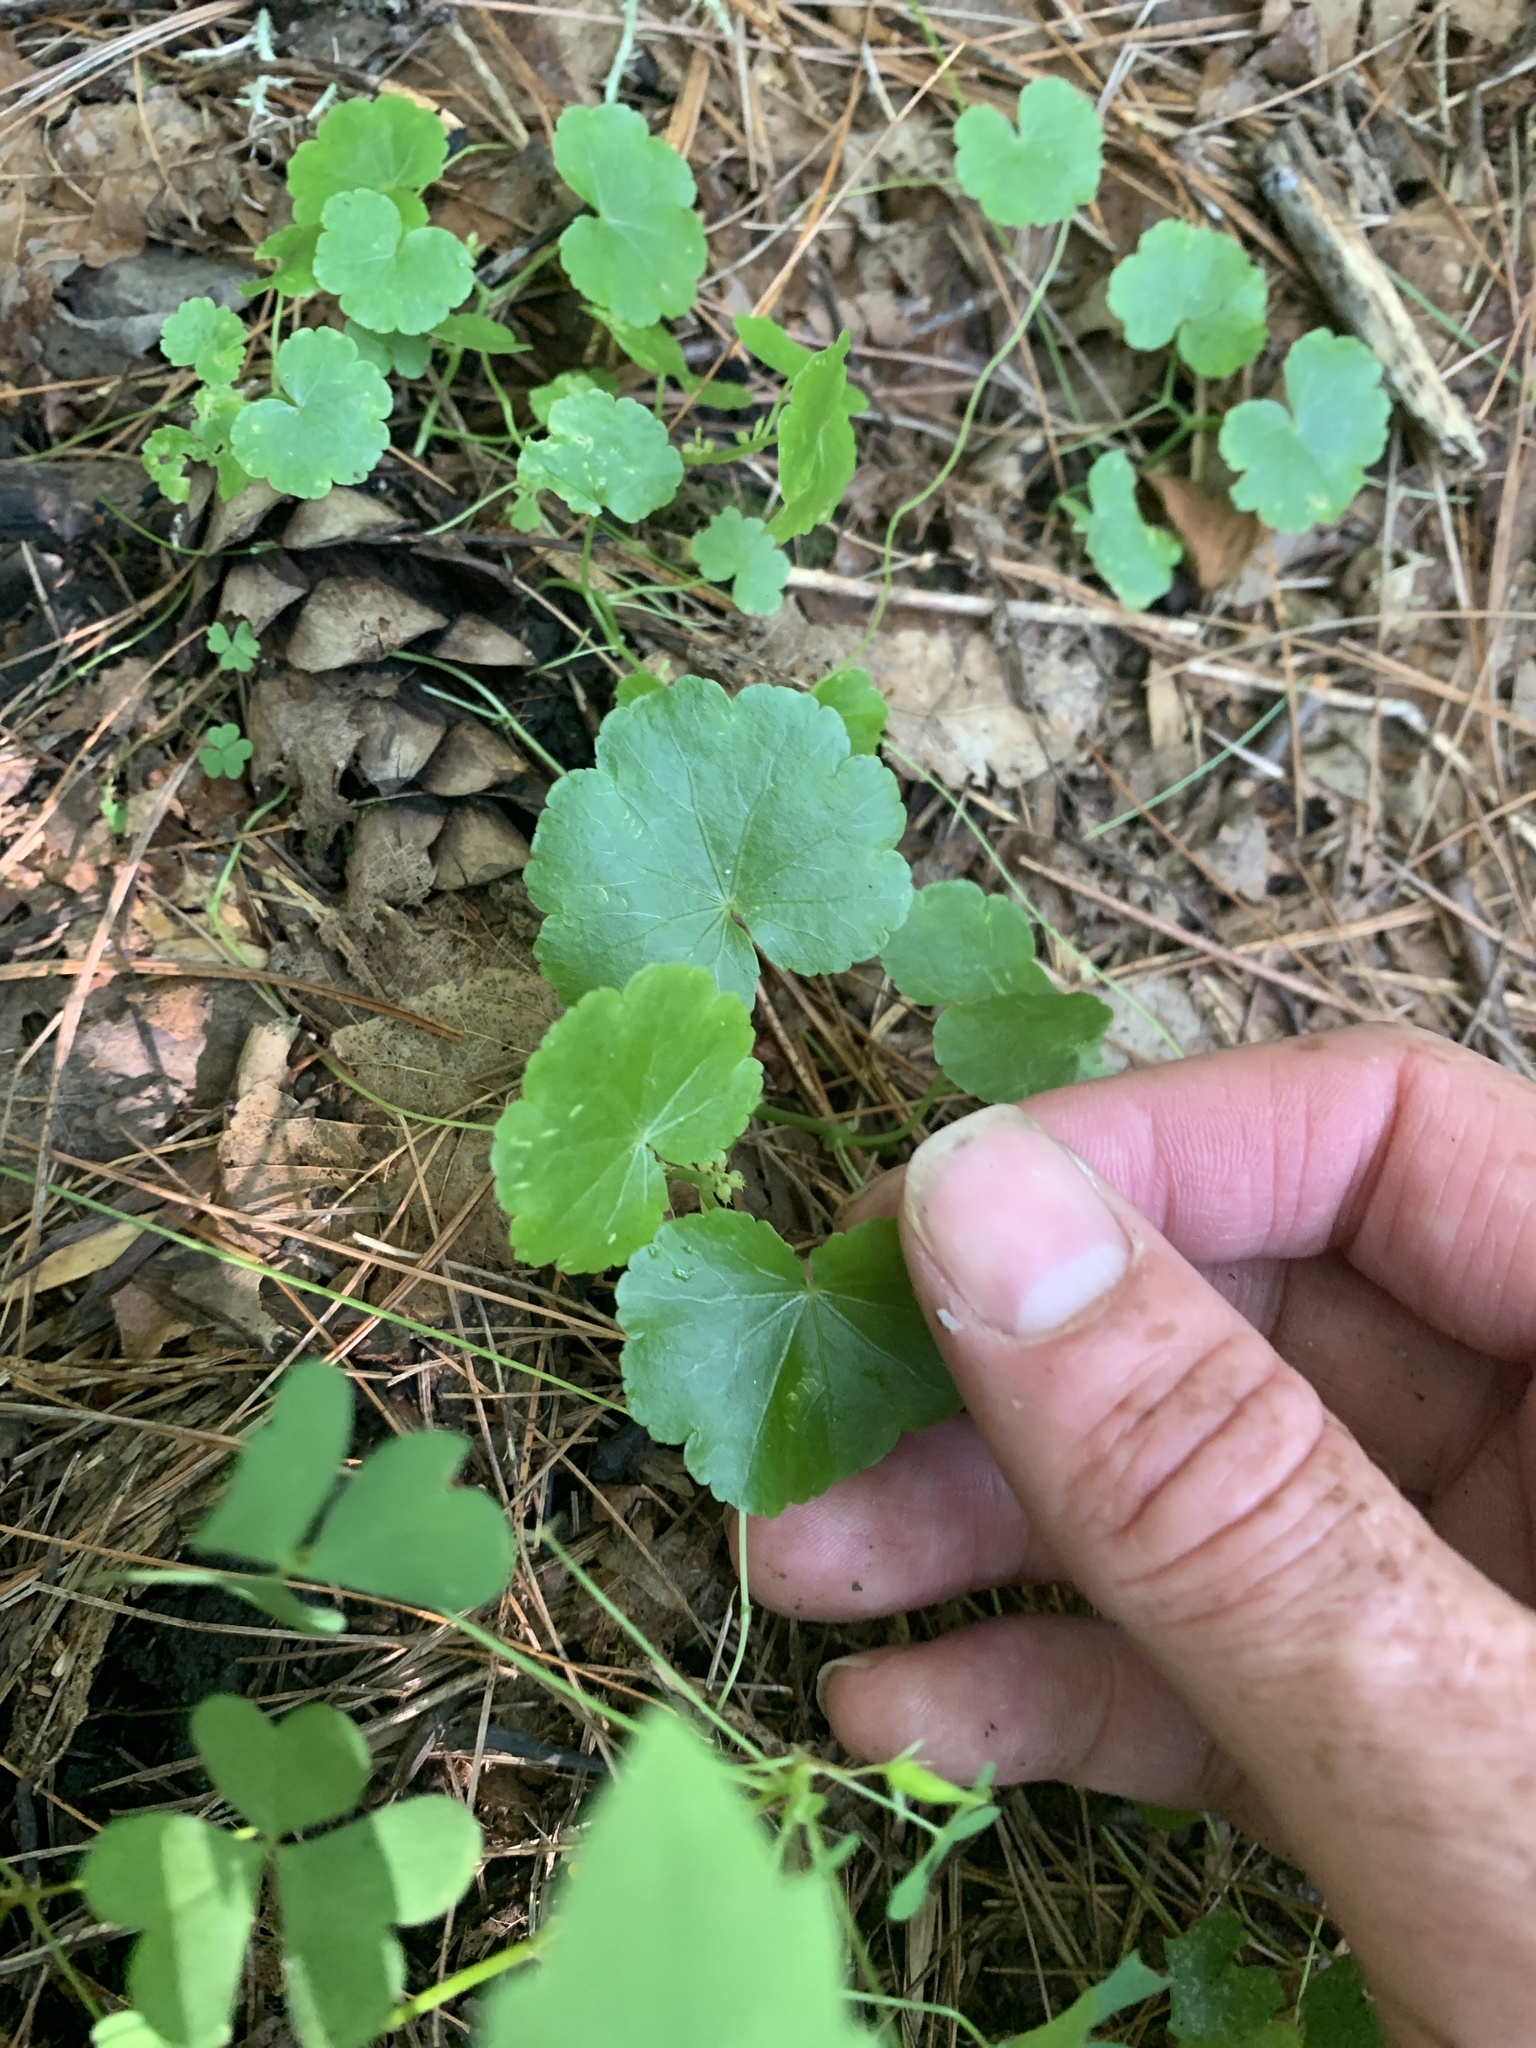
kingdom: Plantae
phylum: Tracheophyta
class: Magnoliopsida
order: Apiales
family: Araliaceae
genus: Hydrocotyle
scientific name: Hydrocotyle americana
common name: American water-pennywort
